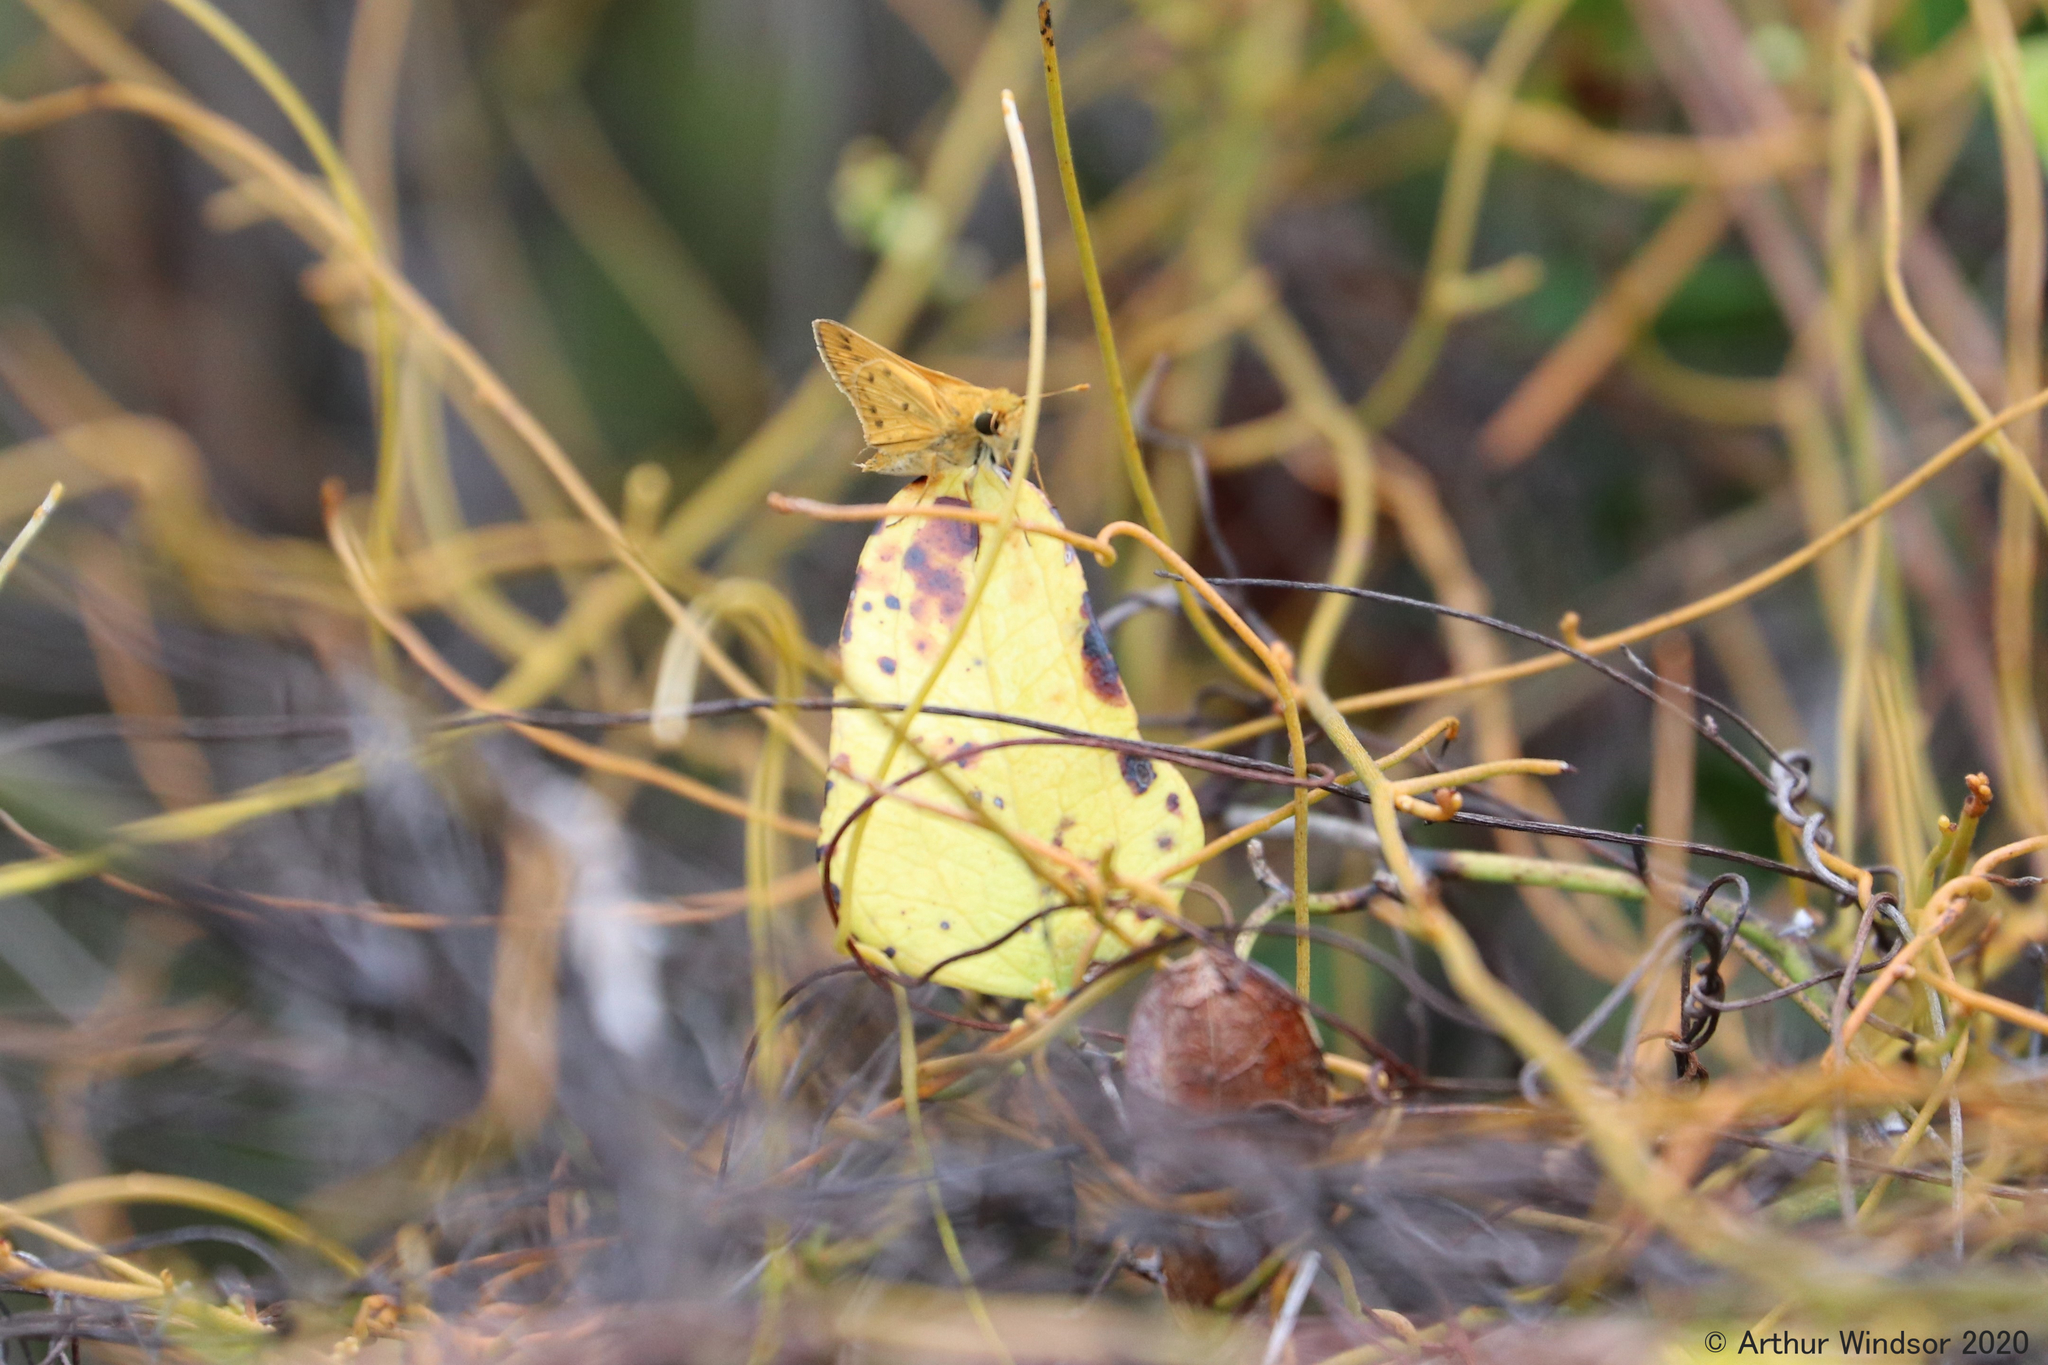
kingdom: Animalia
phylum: Arthropoda
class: Insecta
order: Lepidoptera
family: Hesperiidae
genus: Hylephila
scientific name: Hylephila phyleus
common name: Fiery skipper
